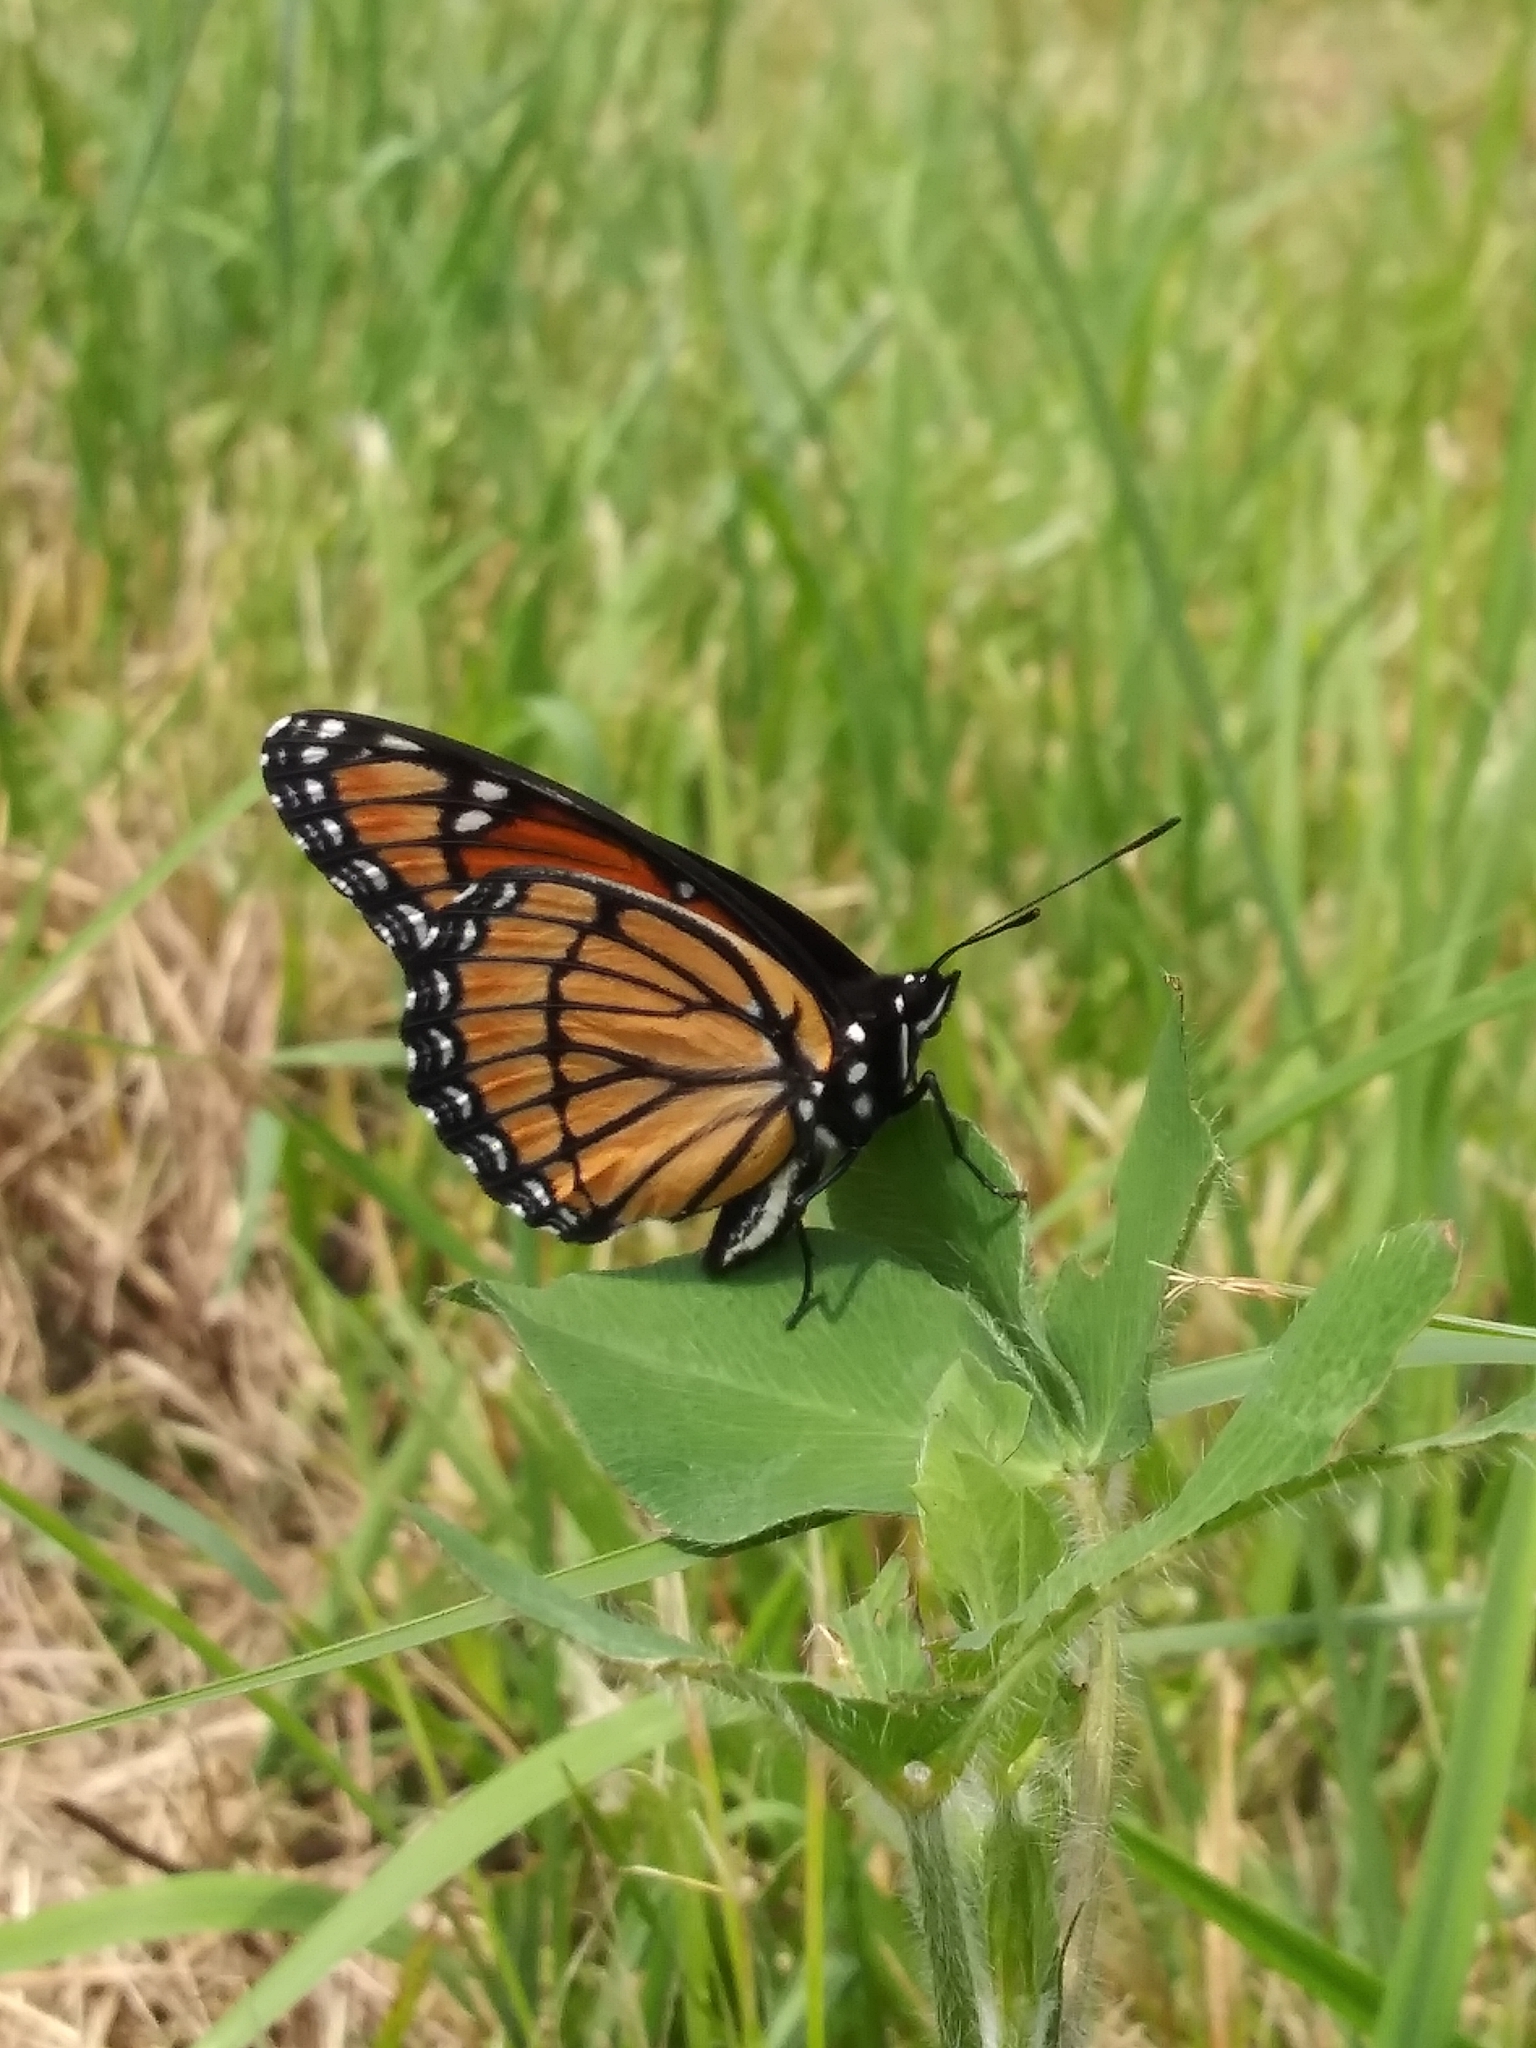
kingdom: Animalia
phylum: Arthropoda
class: Insecta
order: Lepidoptera
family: Nymphalidae
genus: Limenitis
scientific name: Limenitis archippus
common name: Viceroy
